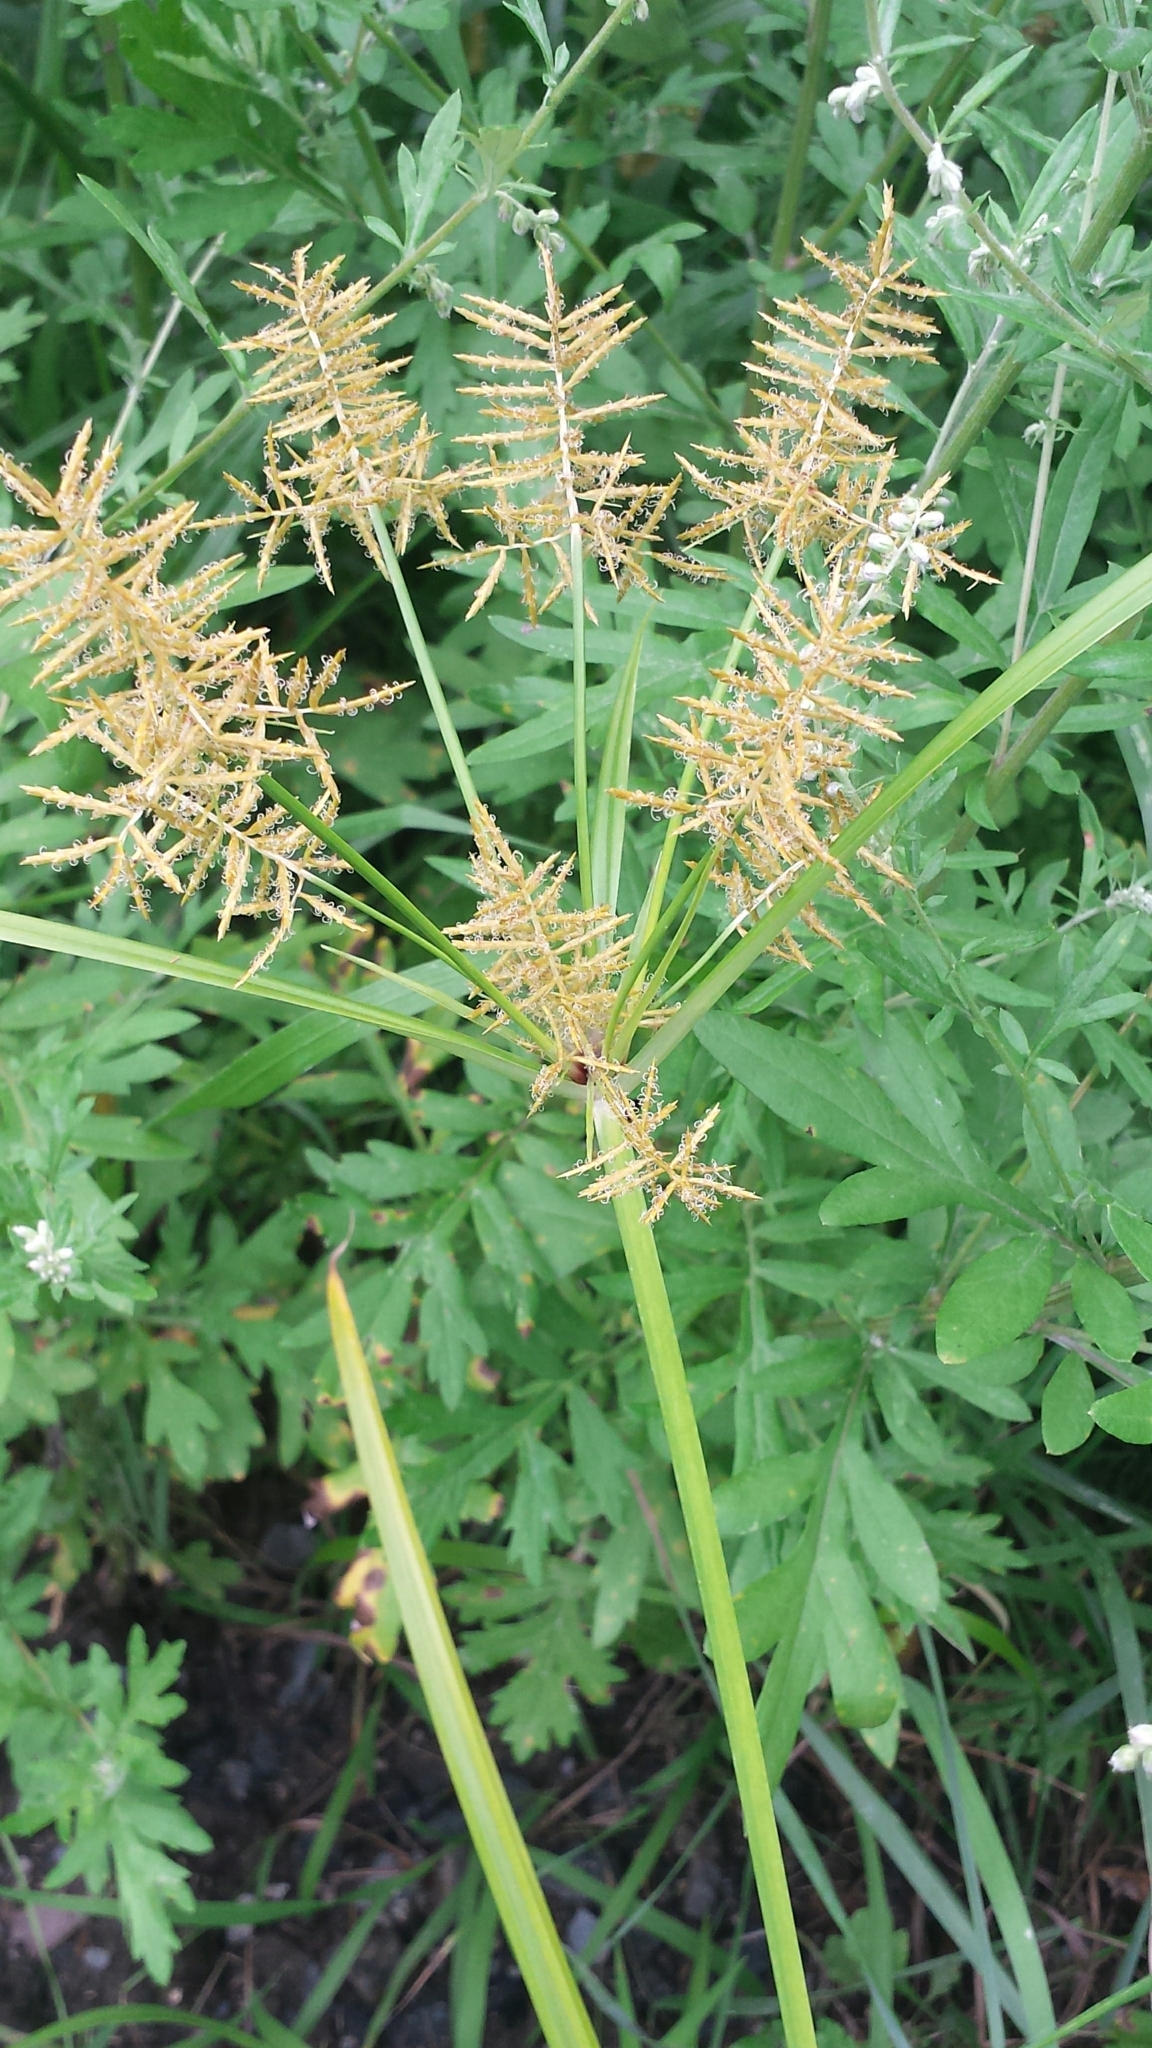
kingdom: Plantae
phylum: Tracheophyta
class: Liliopsida
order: Poales
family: Cyperaceae
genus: Cyperus
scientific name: Cyperus esculentus
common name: Yellow nutsedge
